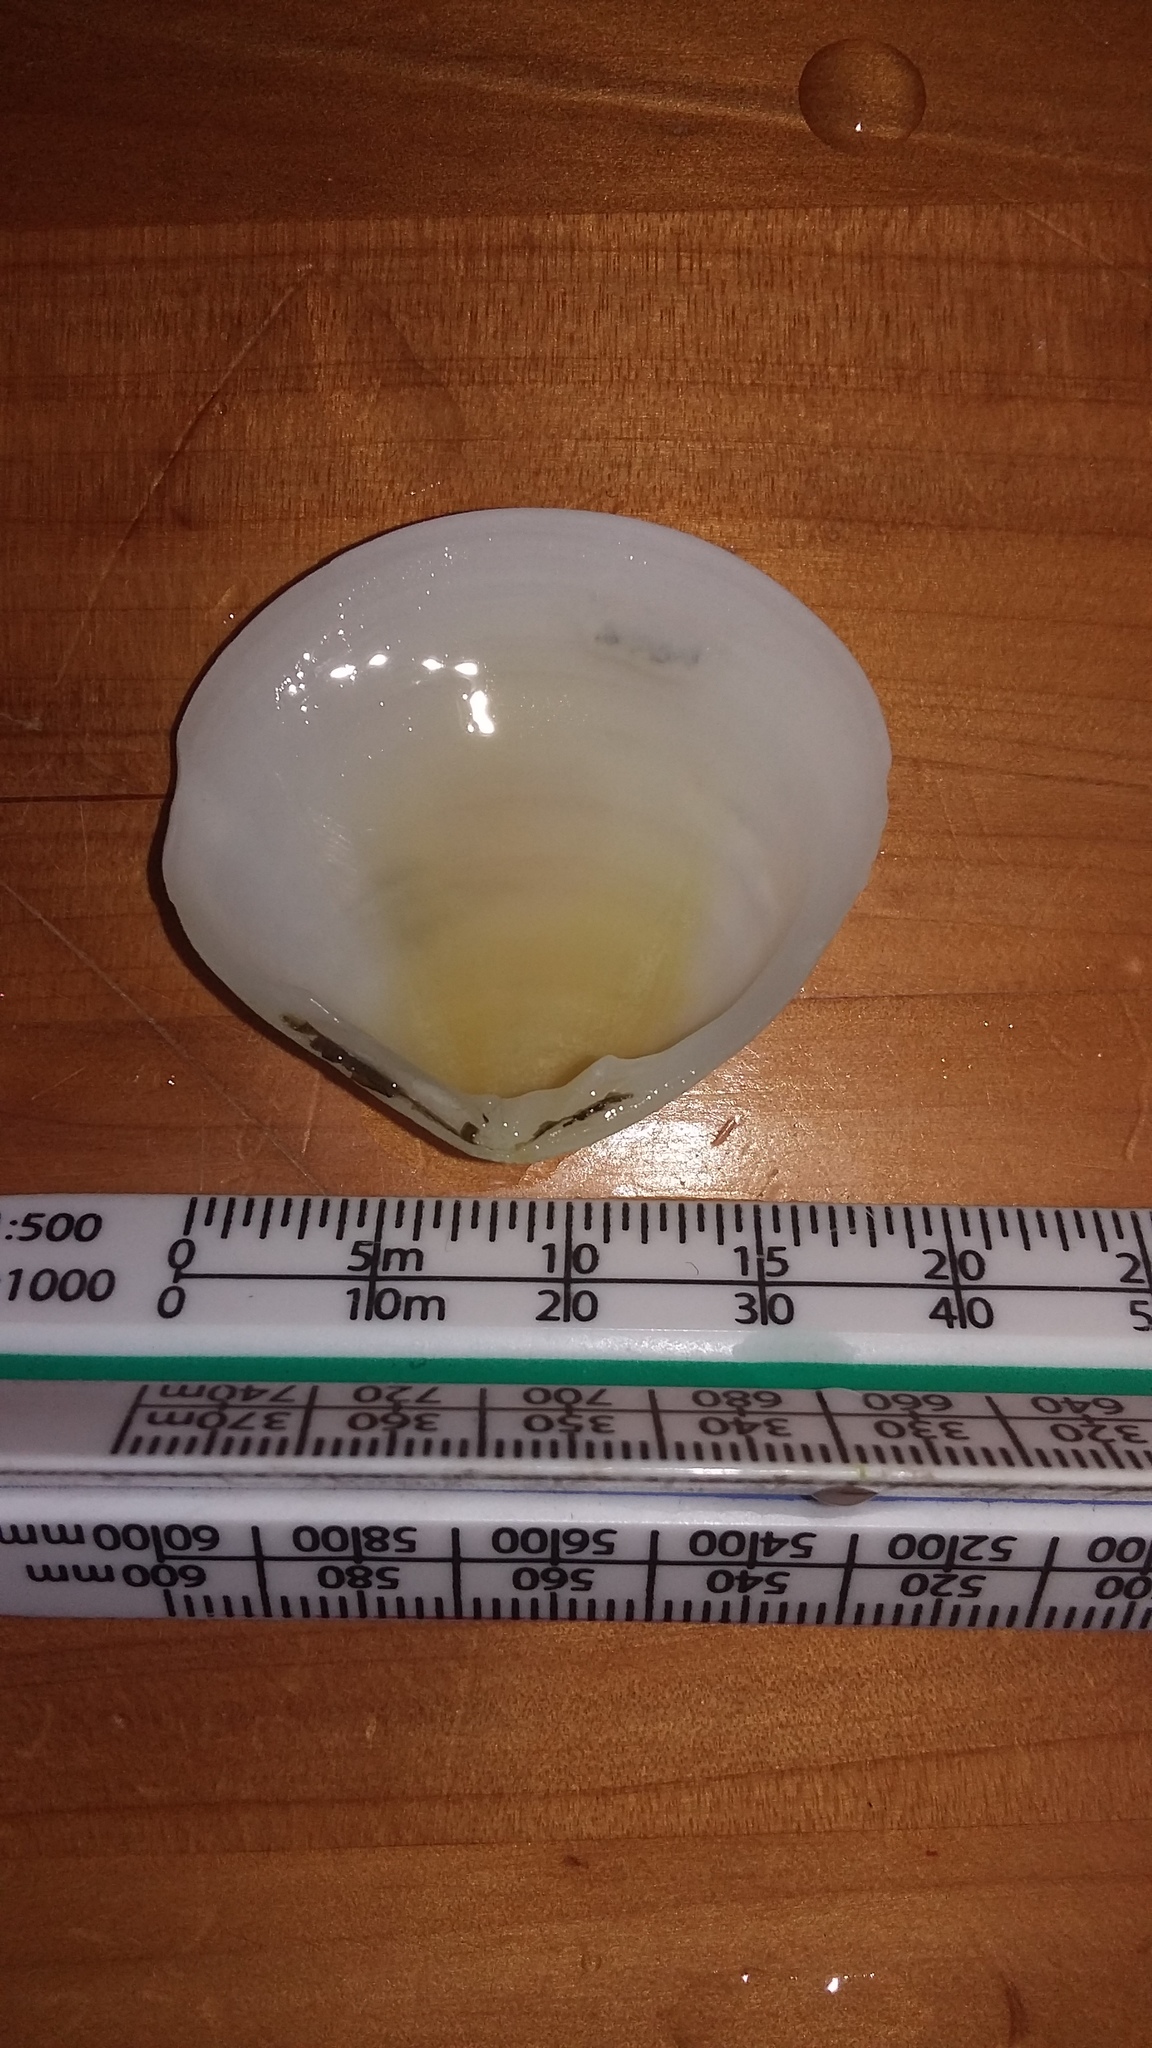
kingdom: Animalia
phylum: Mollusca
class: Bivalvia
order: Cardiida
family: Tellinidae
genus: Pseudarcopagia
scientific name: Pseudarcopagia disculus
